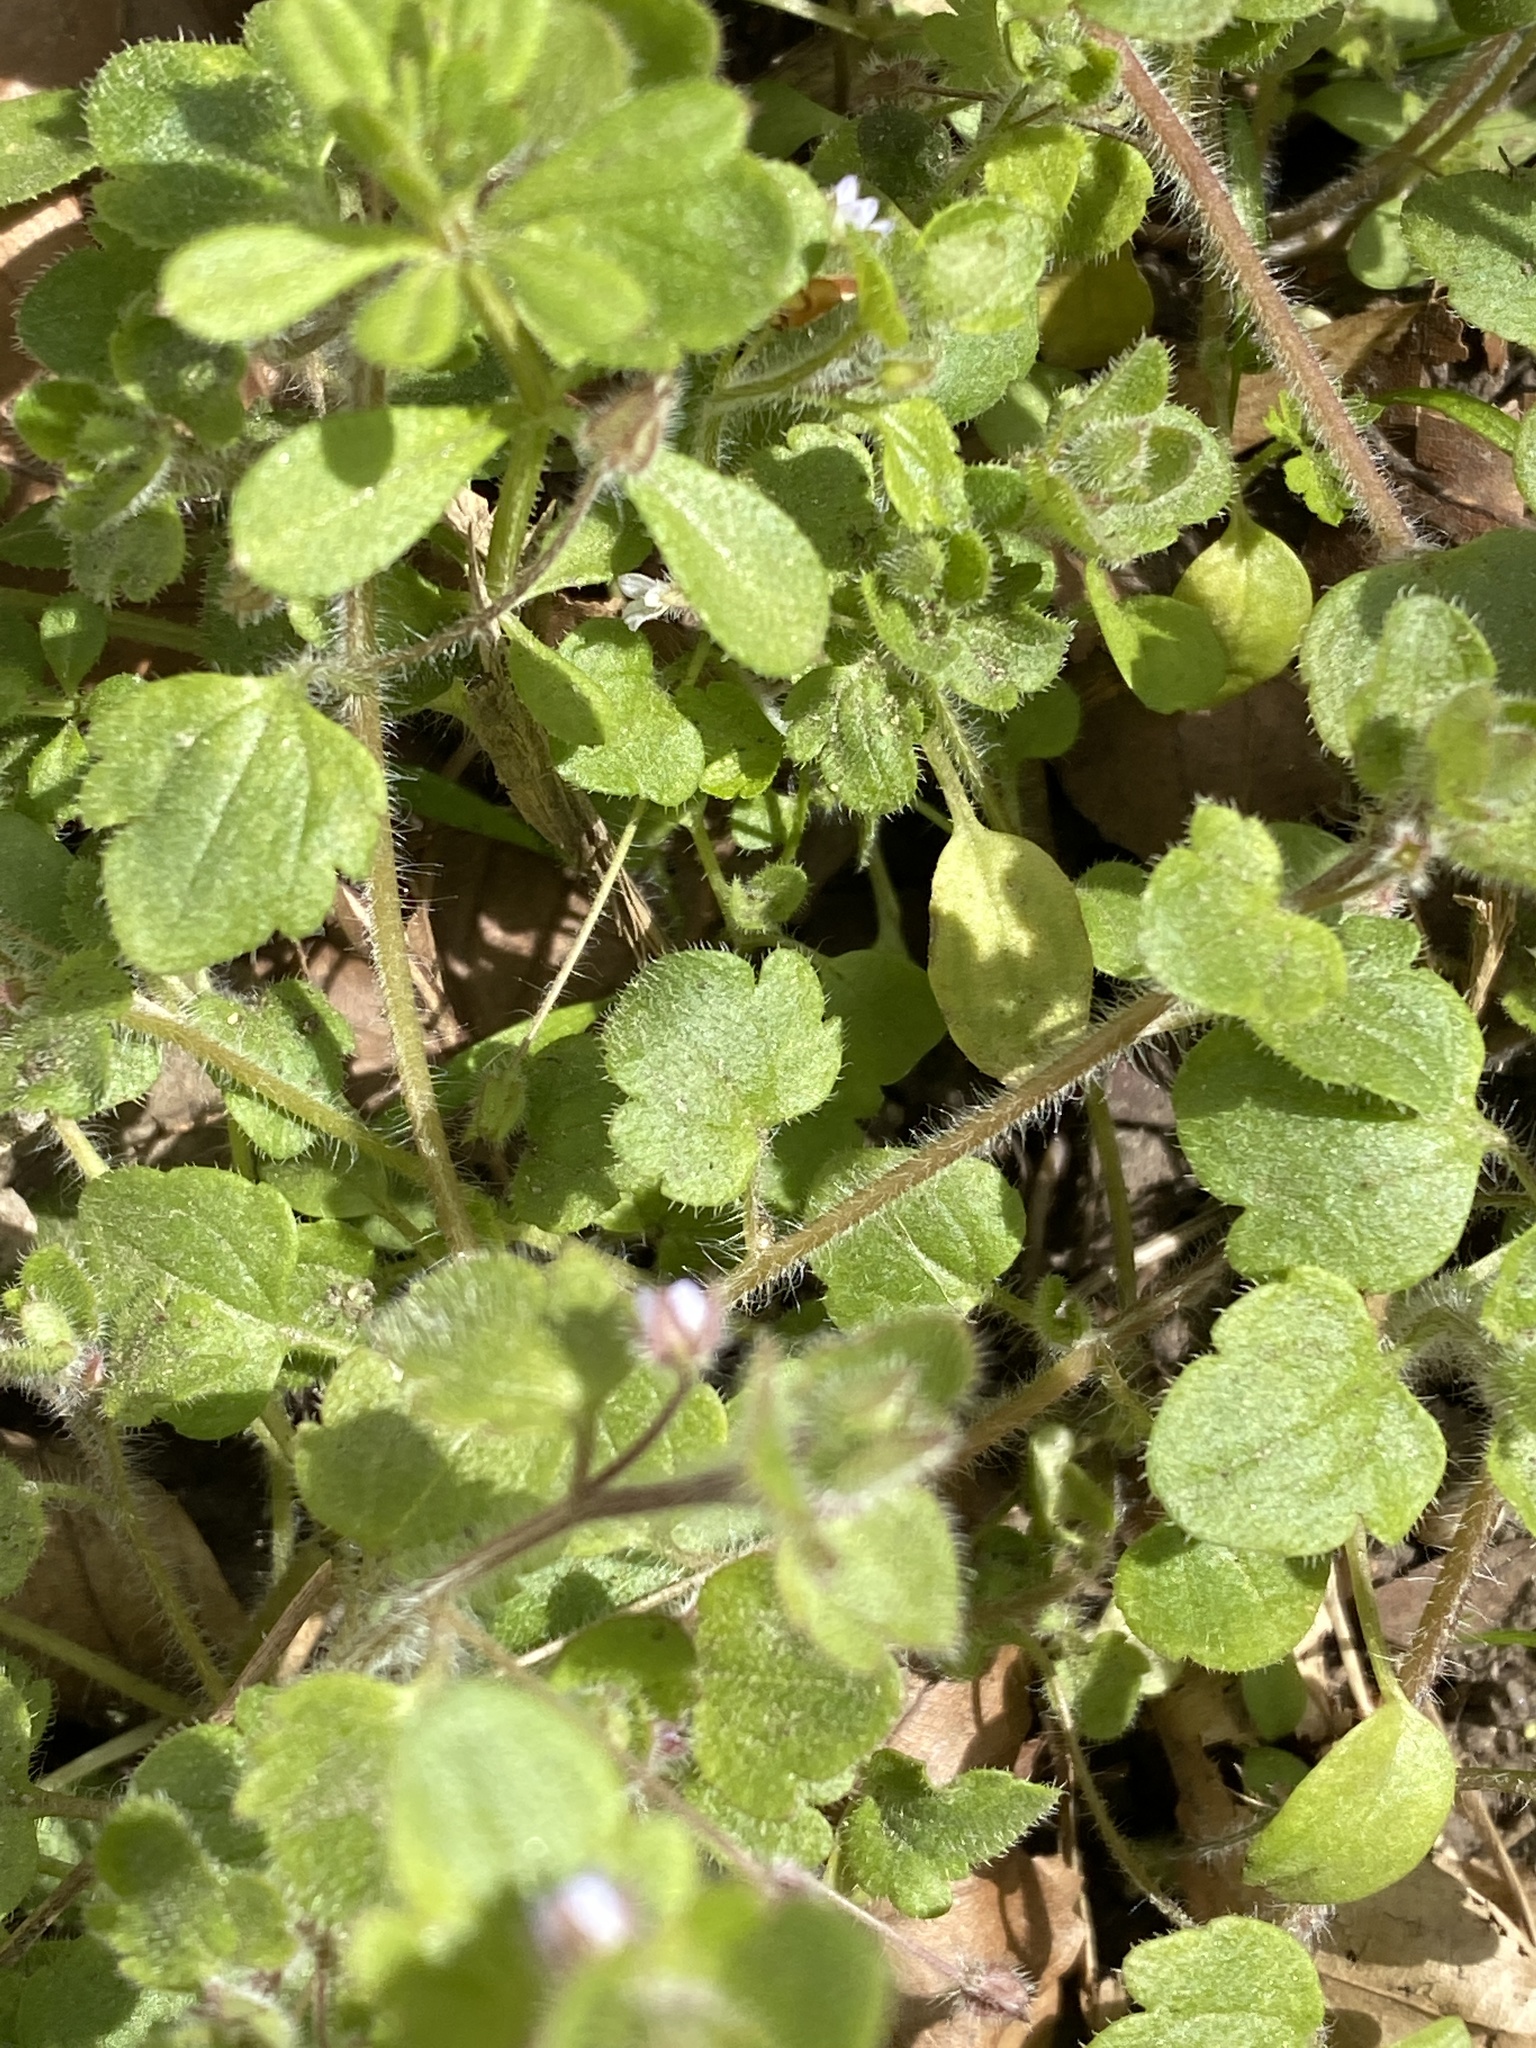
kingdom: Plantae
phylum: Tracheophyta
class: Magnoliopsida
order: Lamiales
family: Plantaginaceae
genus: Veronica
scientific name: Veronica sublobata
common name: False ivy-leaved speedwell
